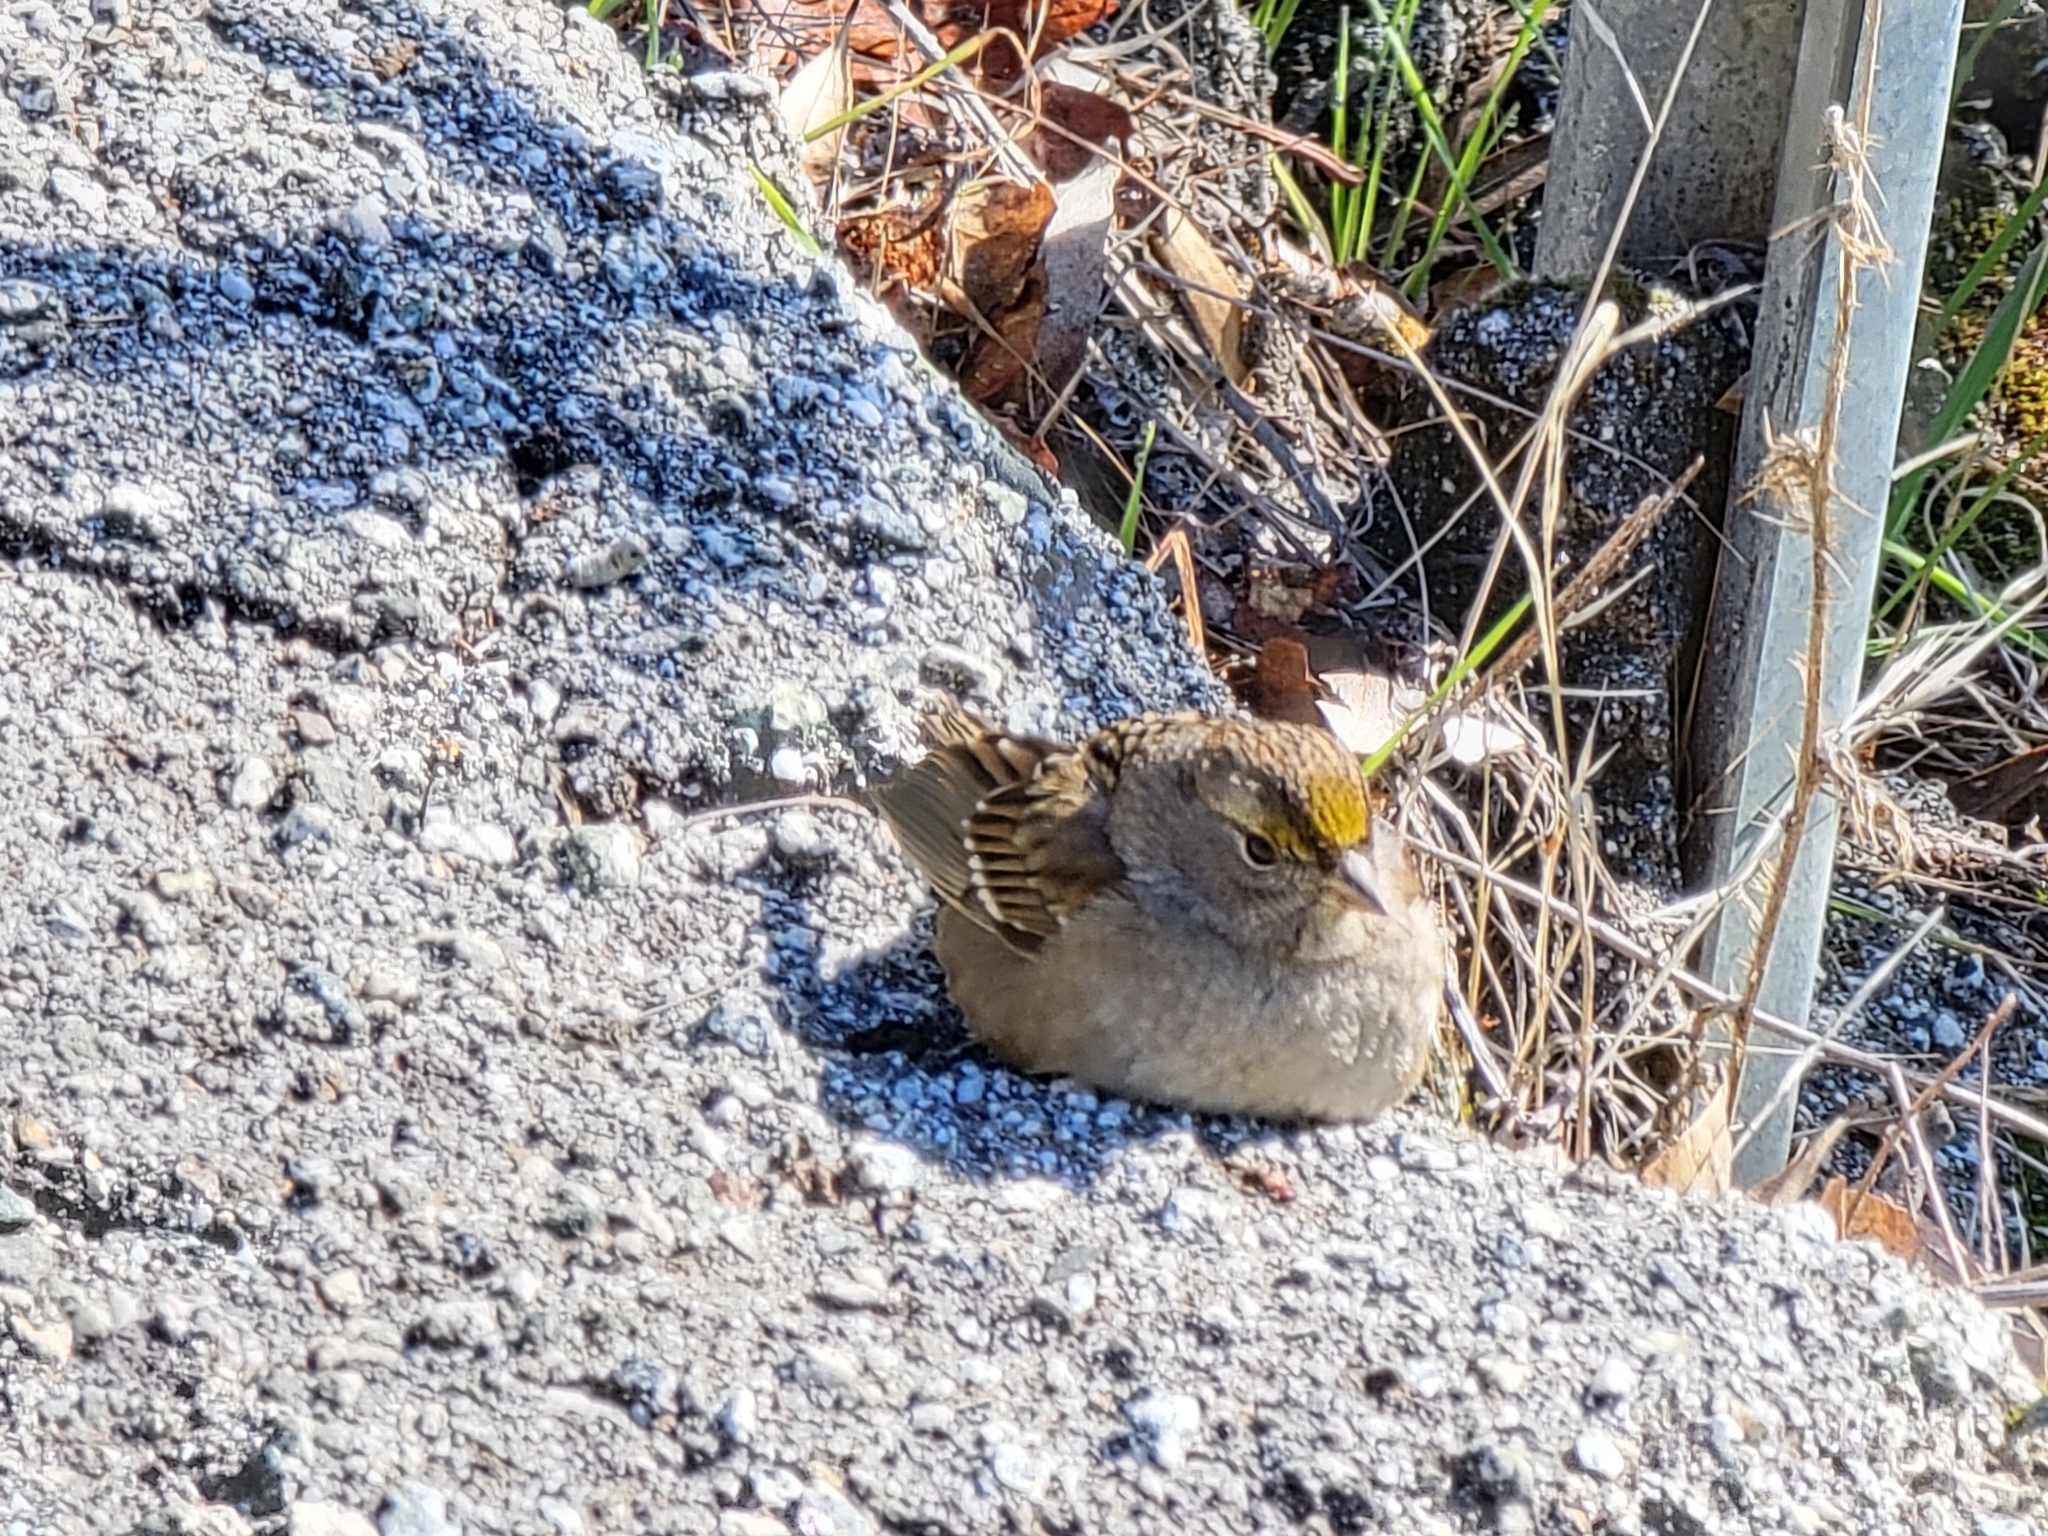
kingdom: Animalia
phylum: Chordata
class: Aves
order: Passeriformes
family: Passerellidae
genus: Zonotrichia
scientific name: Zonotrichia atricapilla
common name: Golden-crowned sparrow
